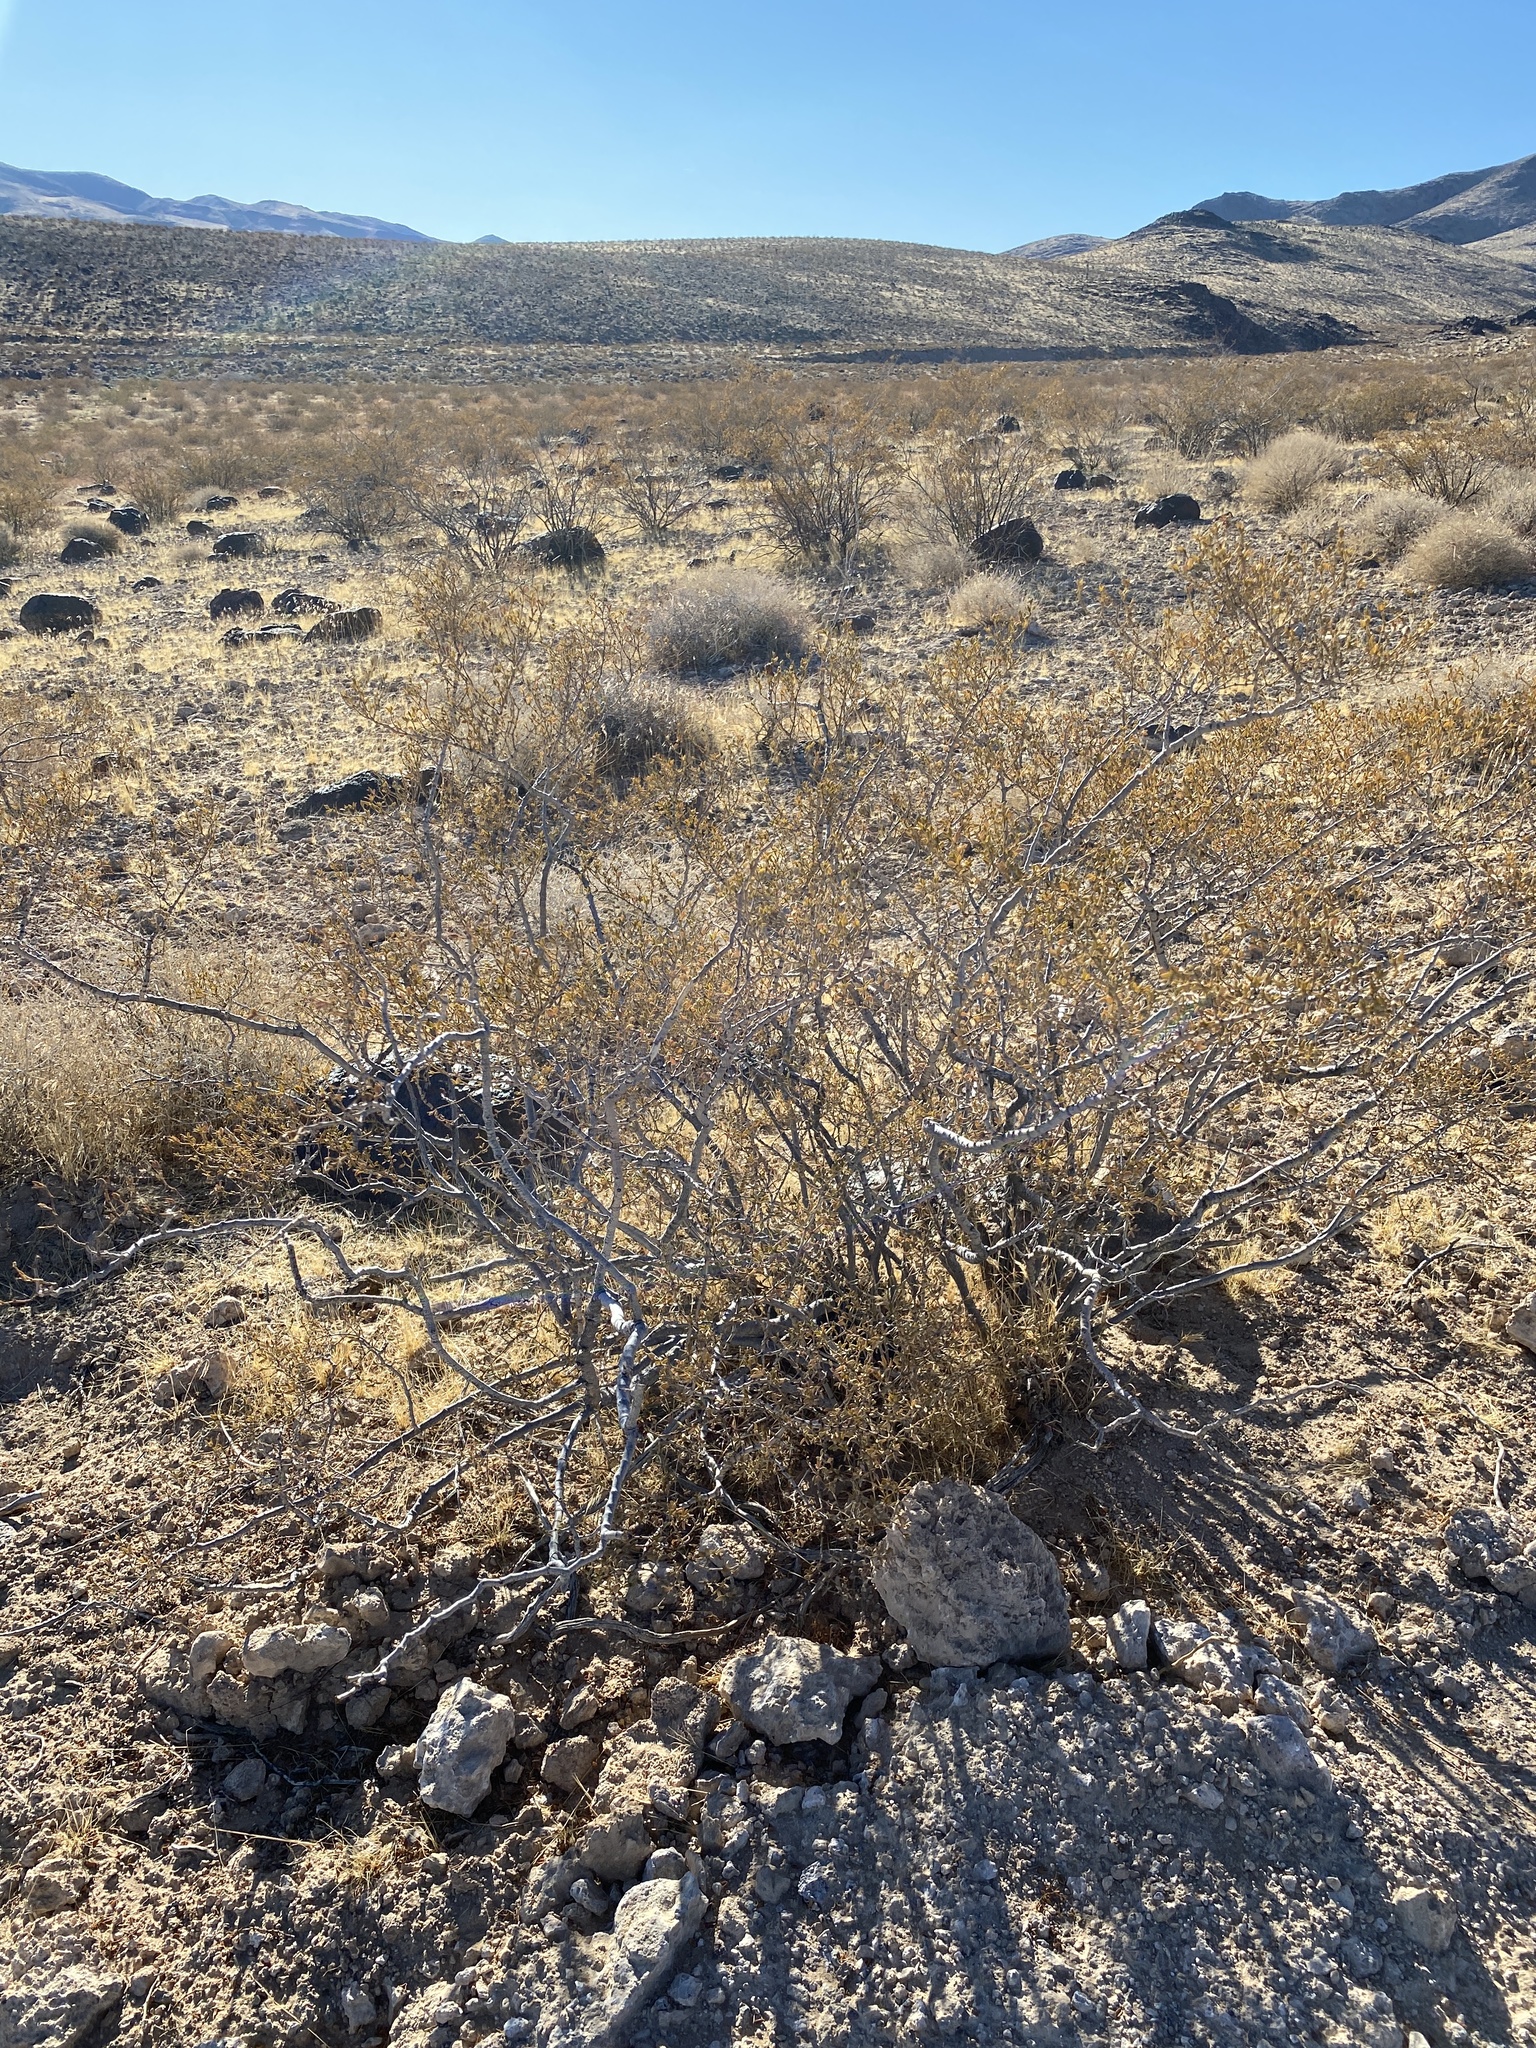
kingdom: Plantae
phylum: Tracheophyta
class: Magnoliopsida
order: Zygophyllales
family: Zygophyllaceae
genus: Larrea
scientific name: Larrea tridentata
